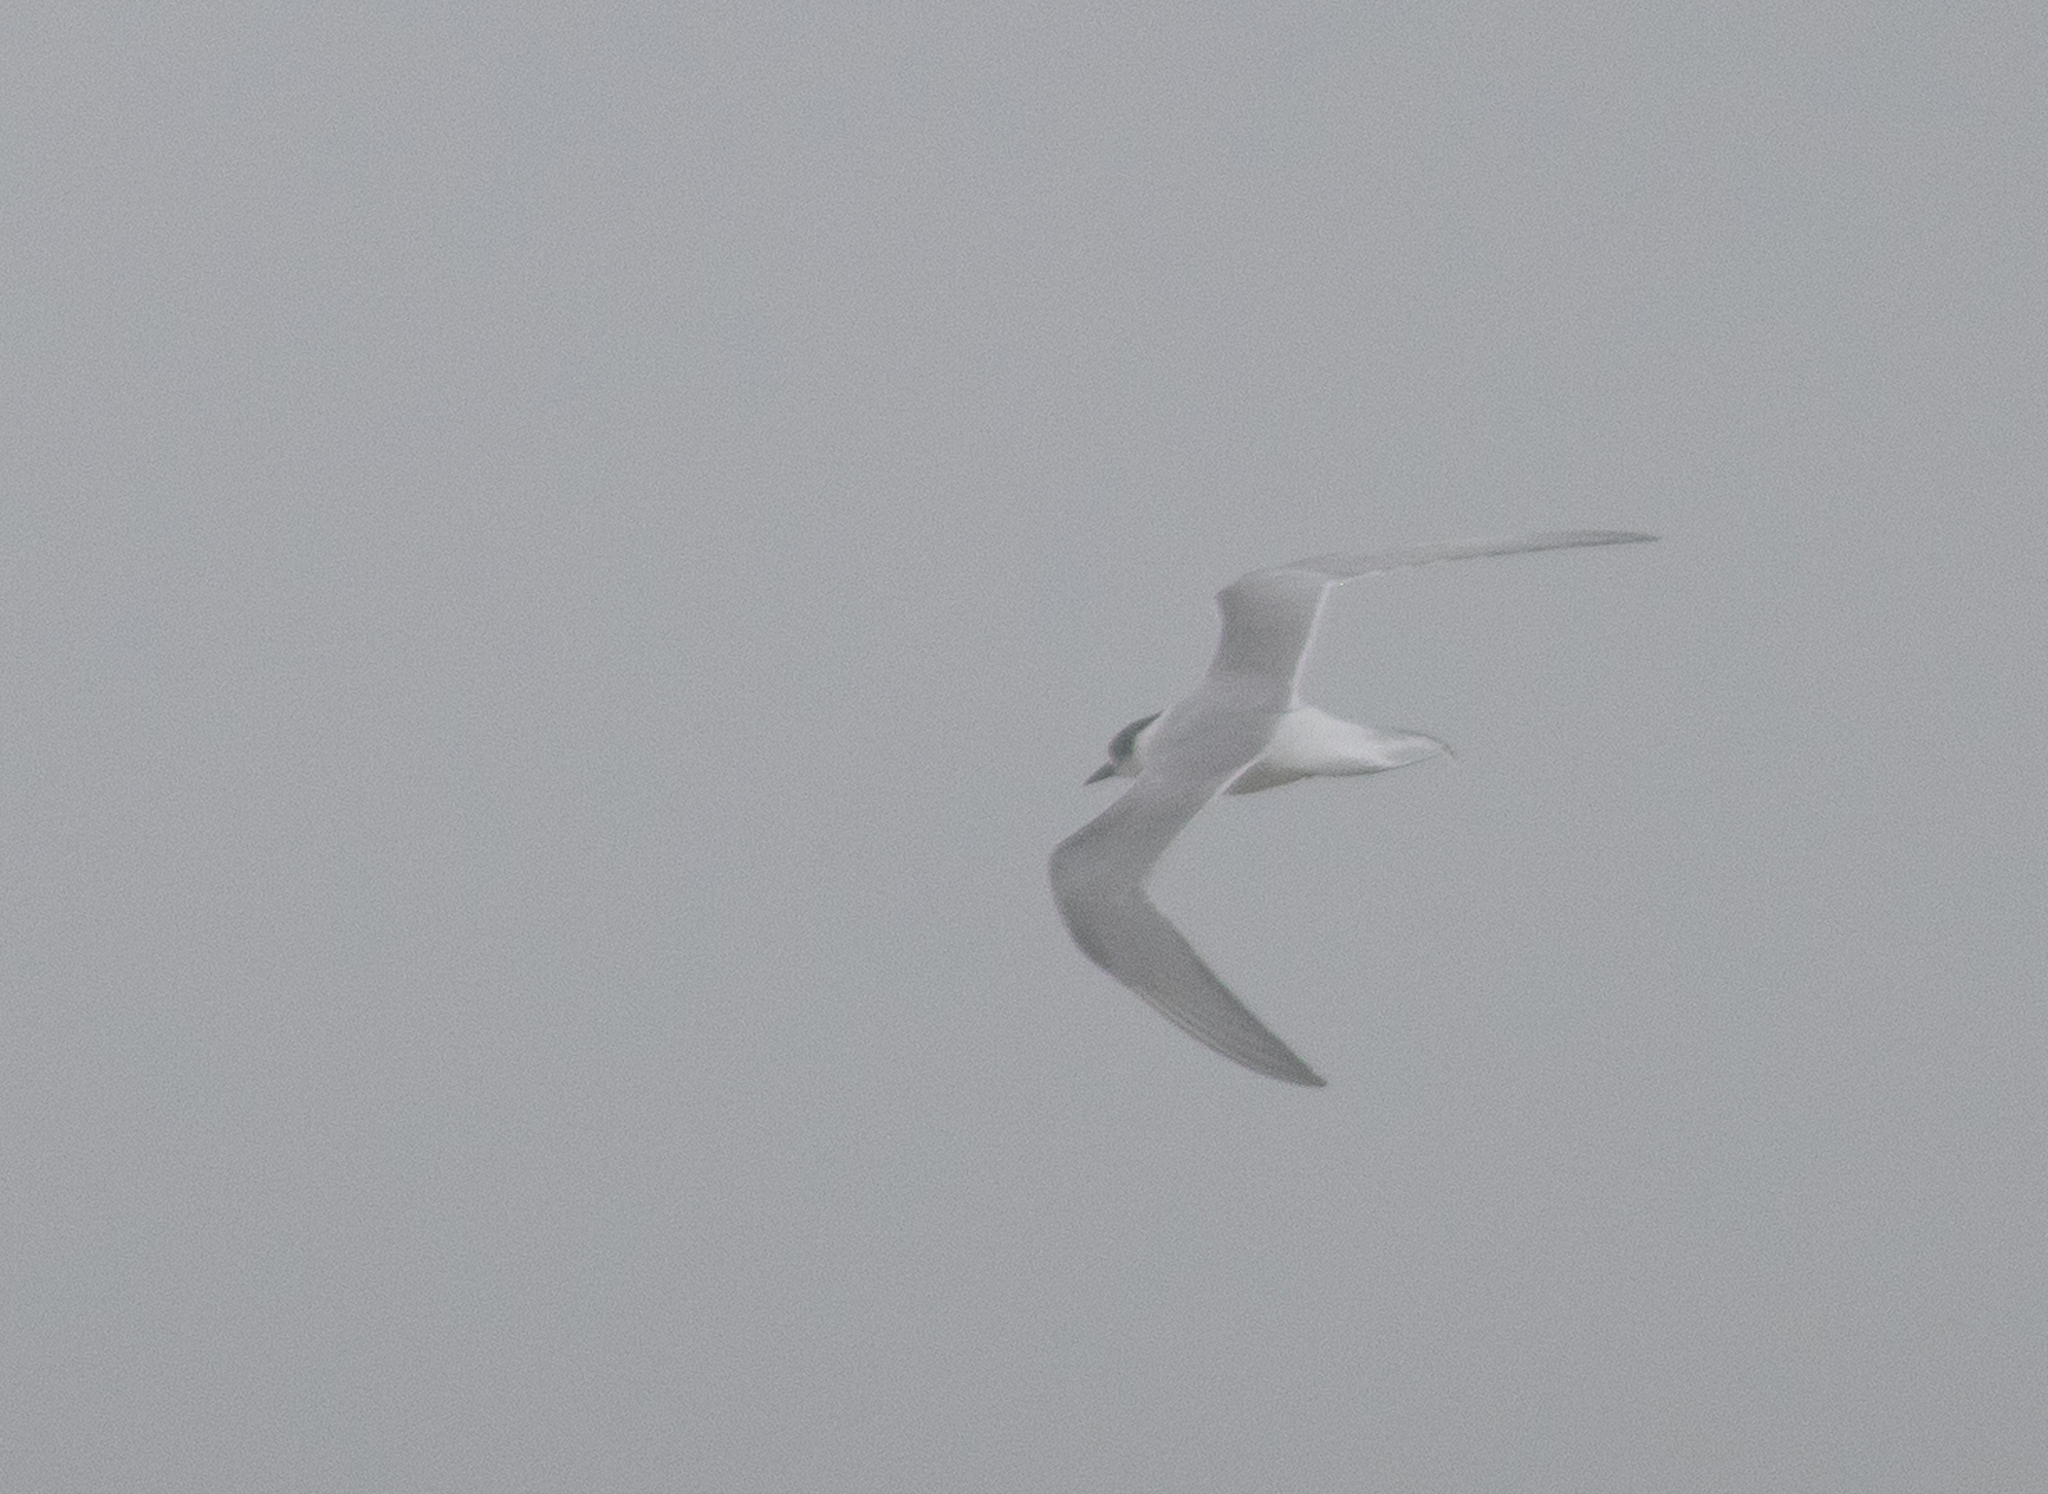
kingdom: Animalia
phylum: Chordata
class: Aves
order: Charadriiformes
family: Laridae
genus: Sterna
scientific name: Sterna paradisaea
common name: Arctic tern
